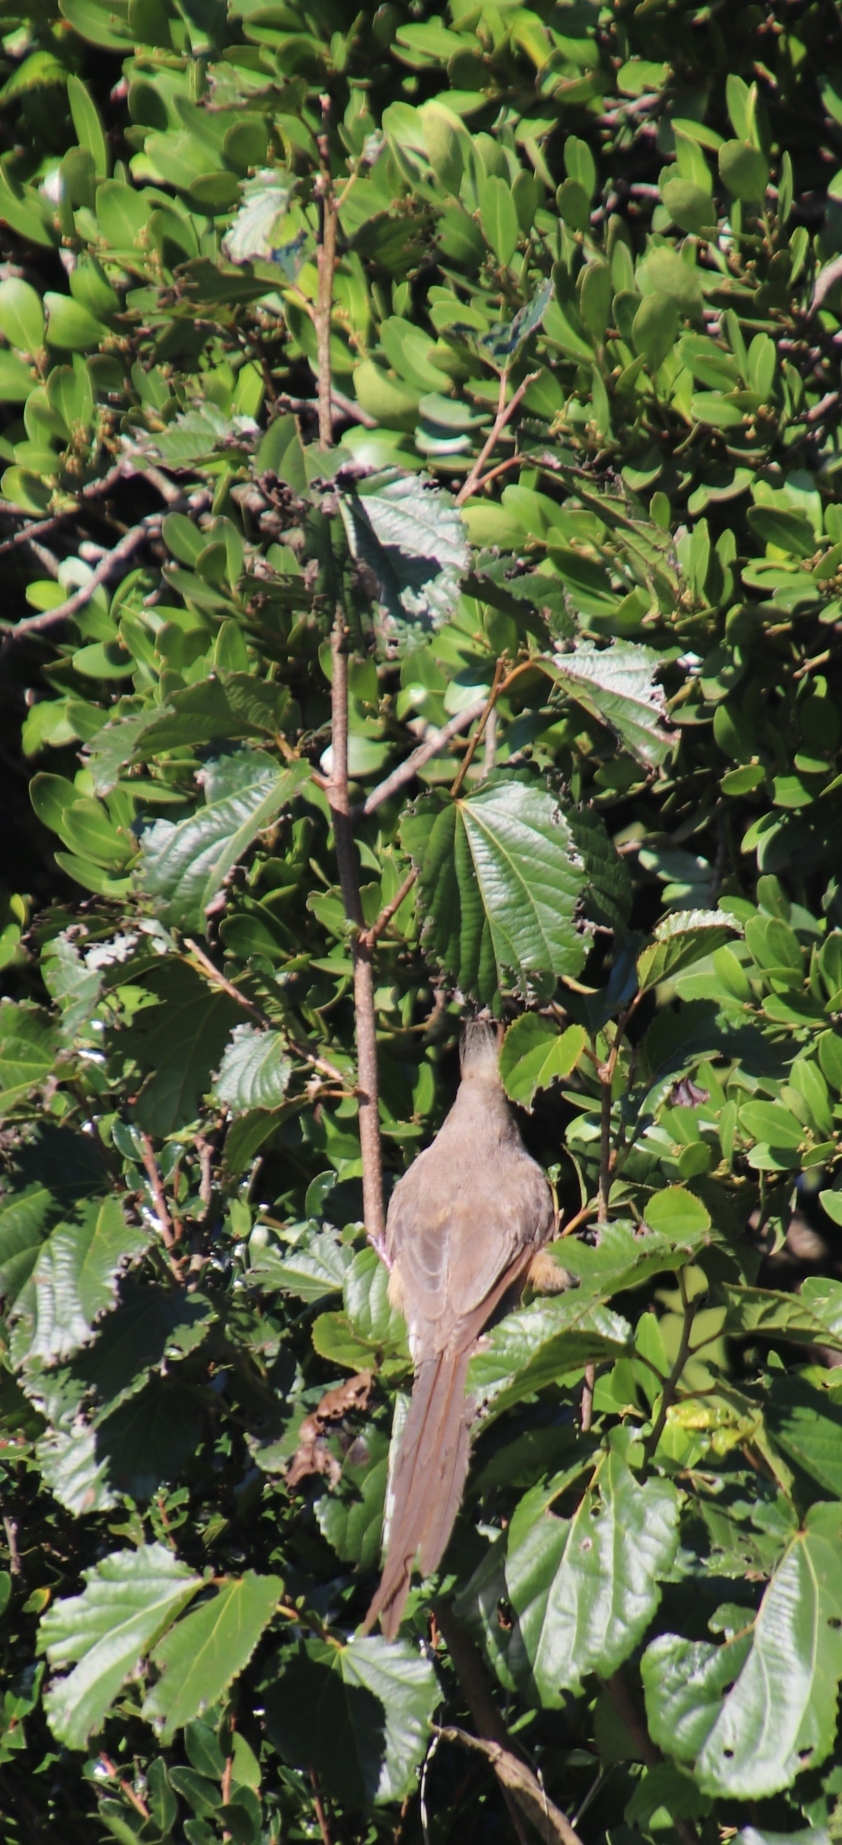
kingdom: Animalia
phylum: Chordata
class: Aves
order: Coliiformes
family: Coliidae
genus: Colius
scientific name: Colius striatus
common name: Speckled mousebird
